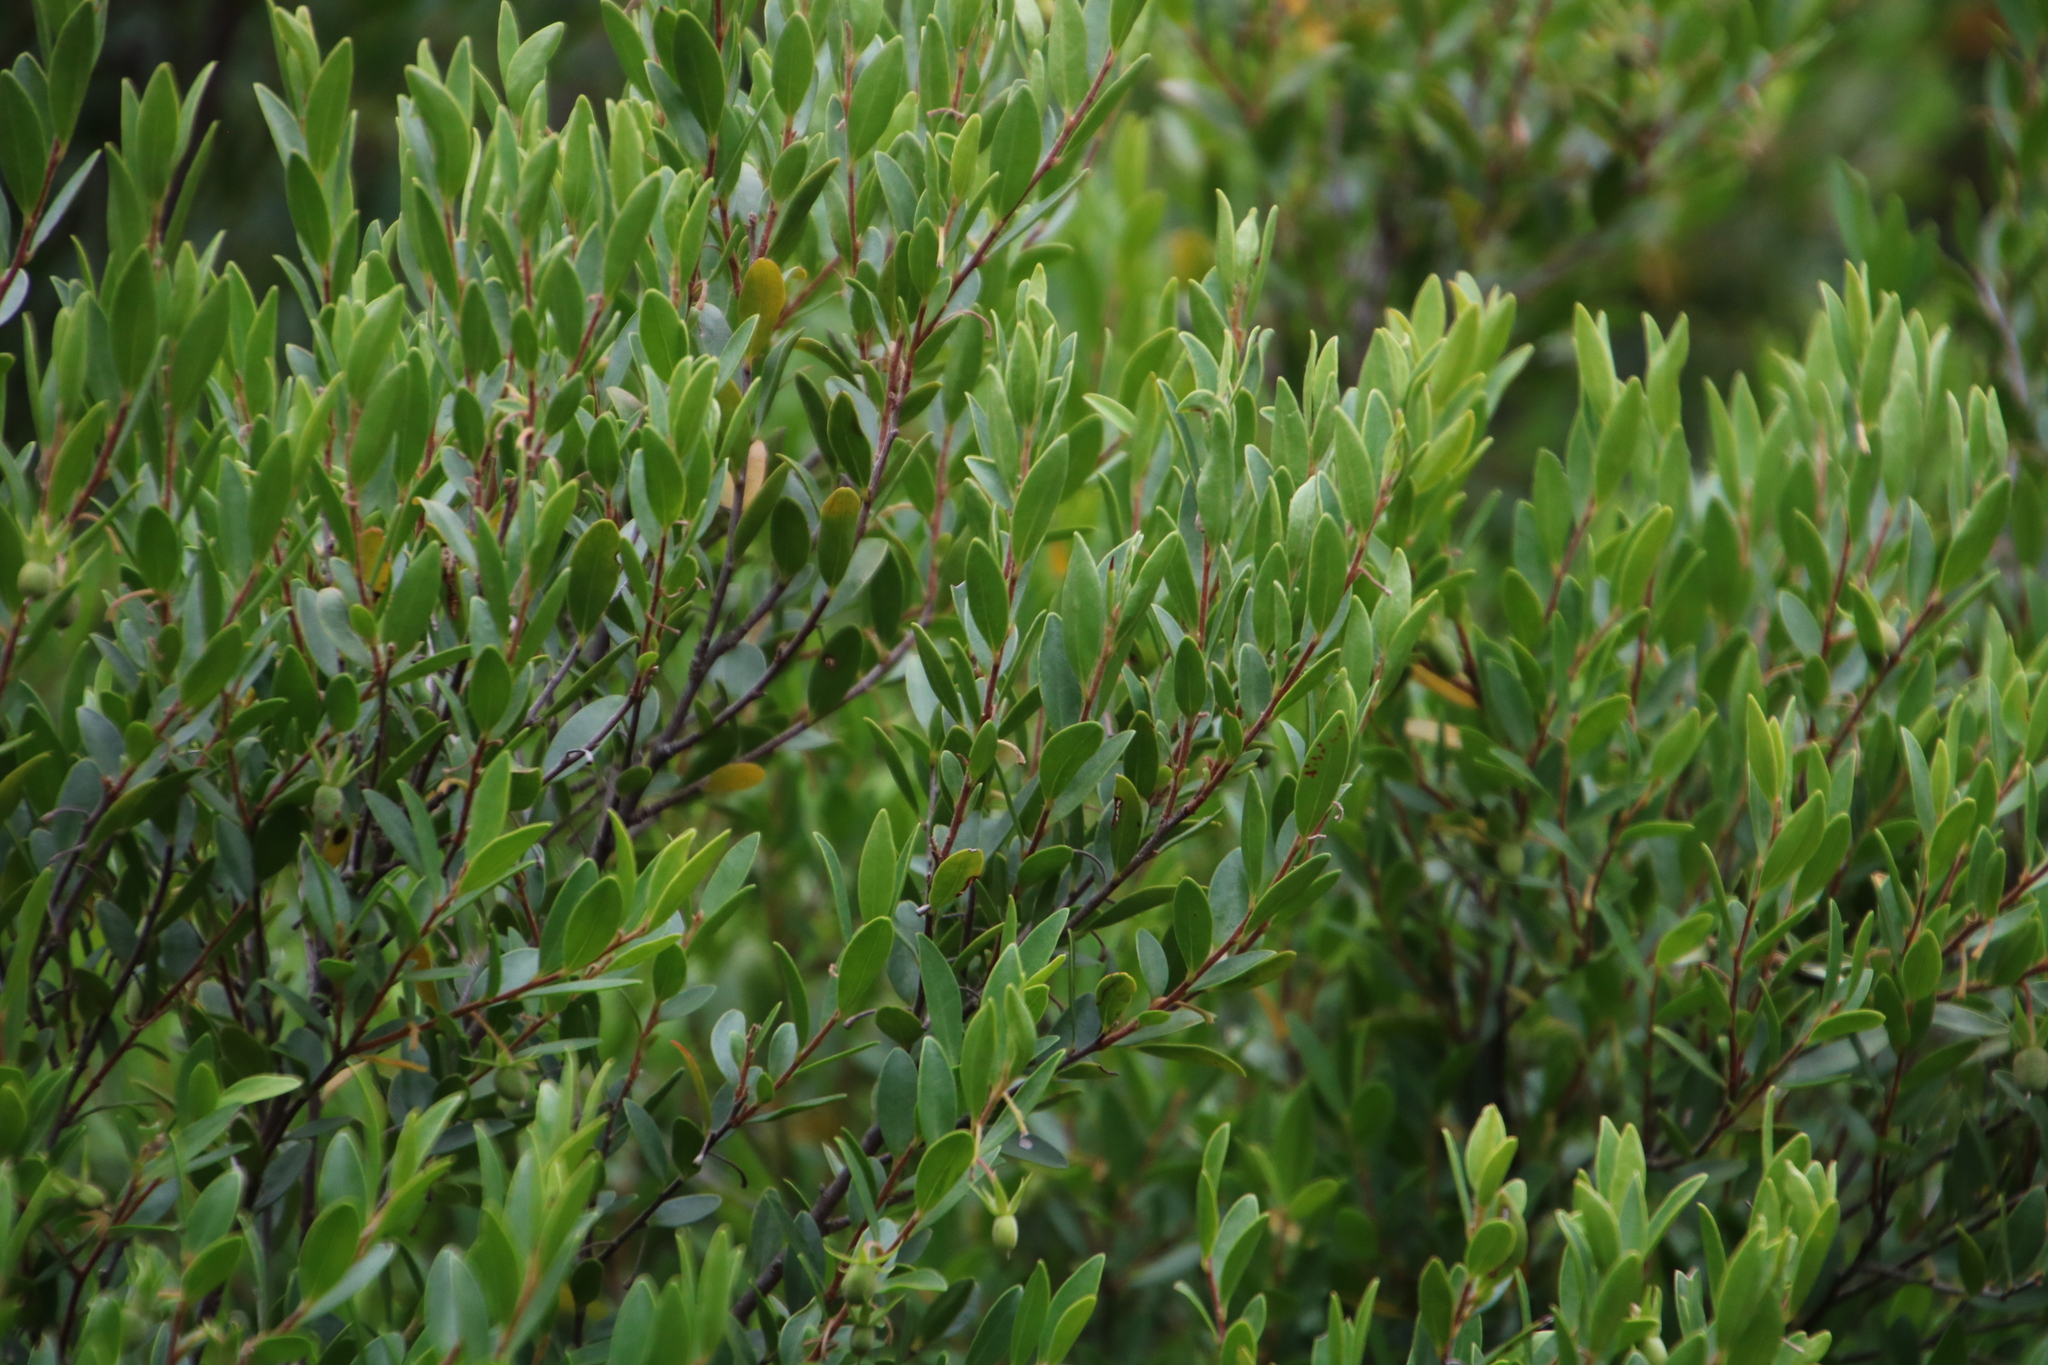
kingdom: Plantae
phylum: Tracheophyta
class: Magnoliopsida
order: Ericales
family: Ebenaceae
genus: Diospyros
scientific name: Diospyros glabra
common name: Fynbos star apple
